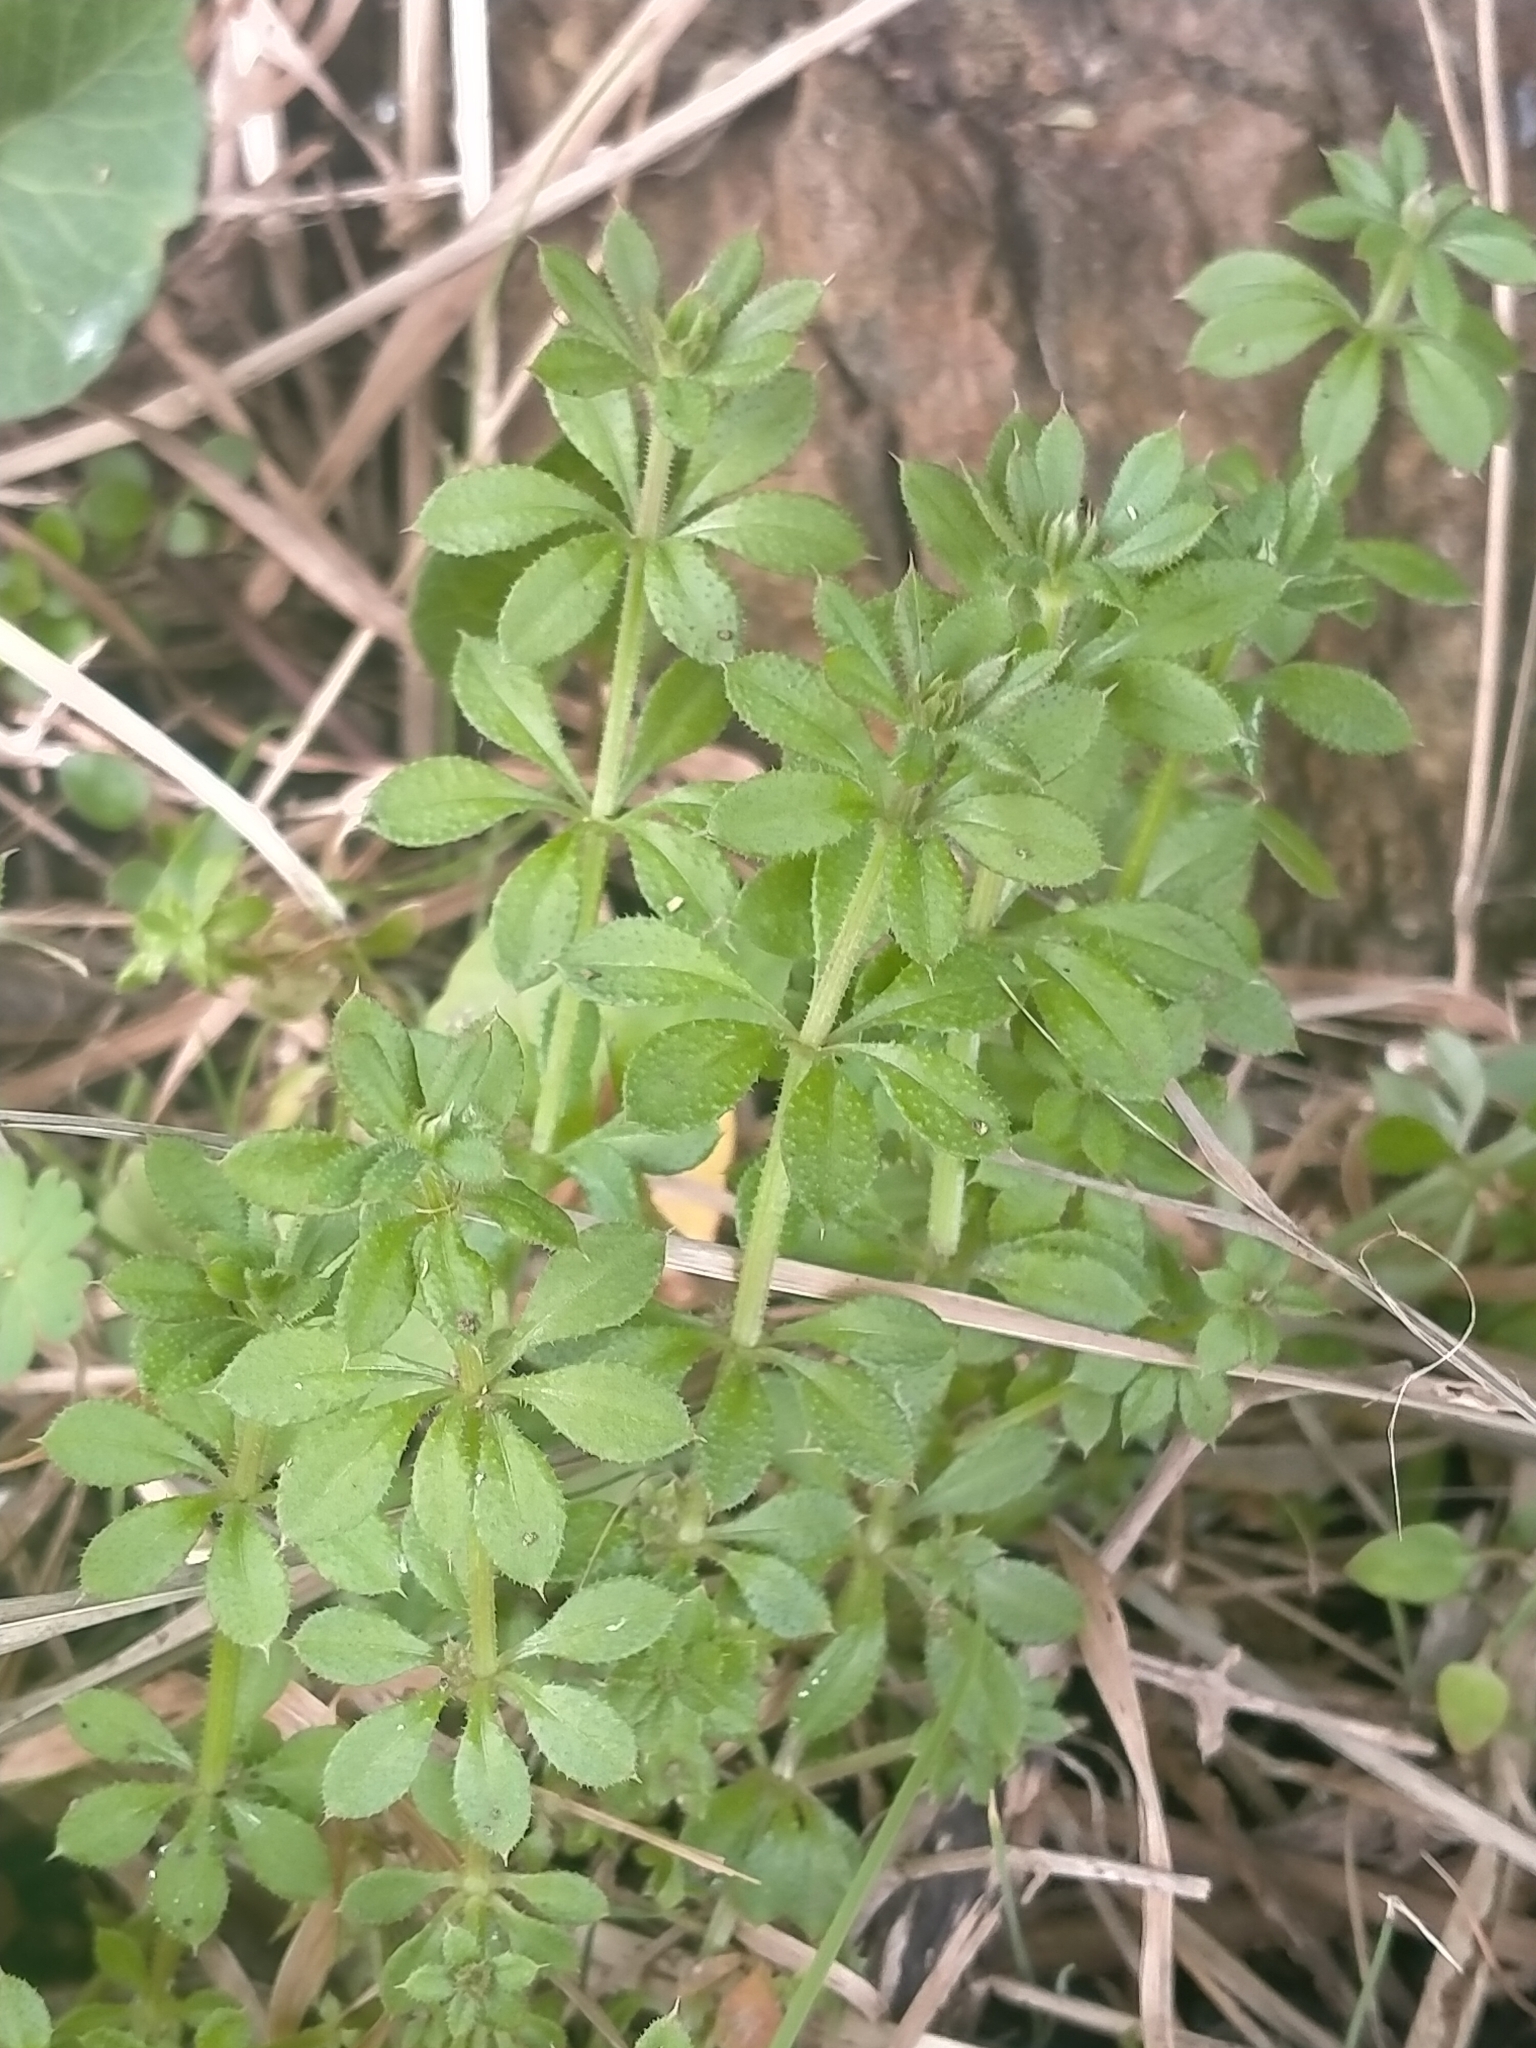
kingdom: Plantae
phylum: Tracheophyta
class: Magnoliopsida
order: Gentianales
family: Rubiaceae
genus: Galium
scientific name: Galium aparine
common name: Cleavers
